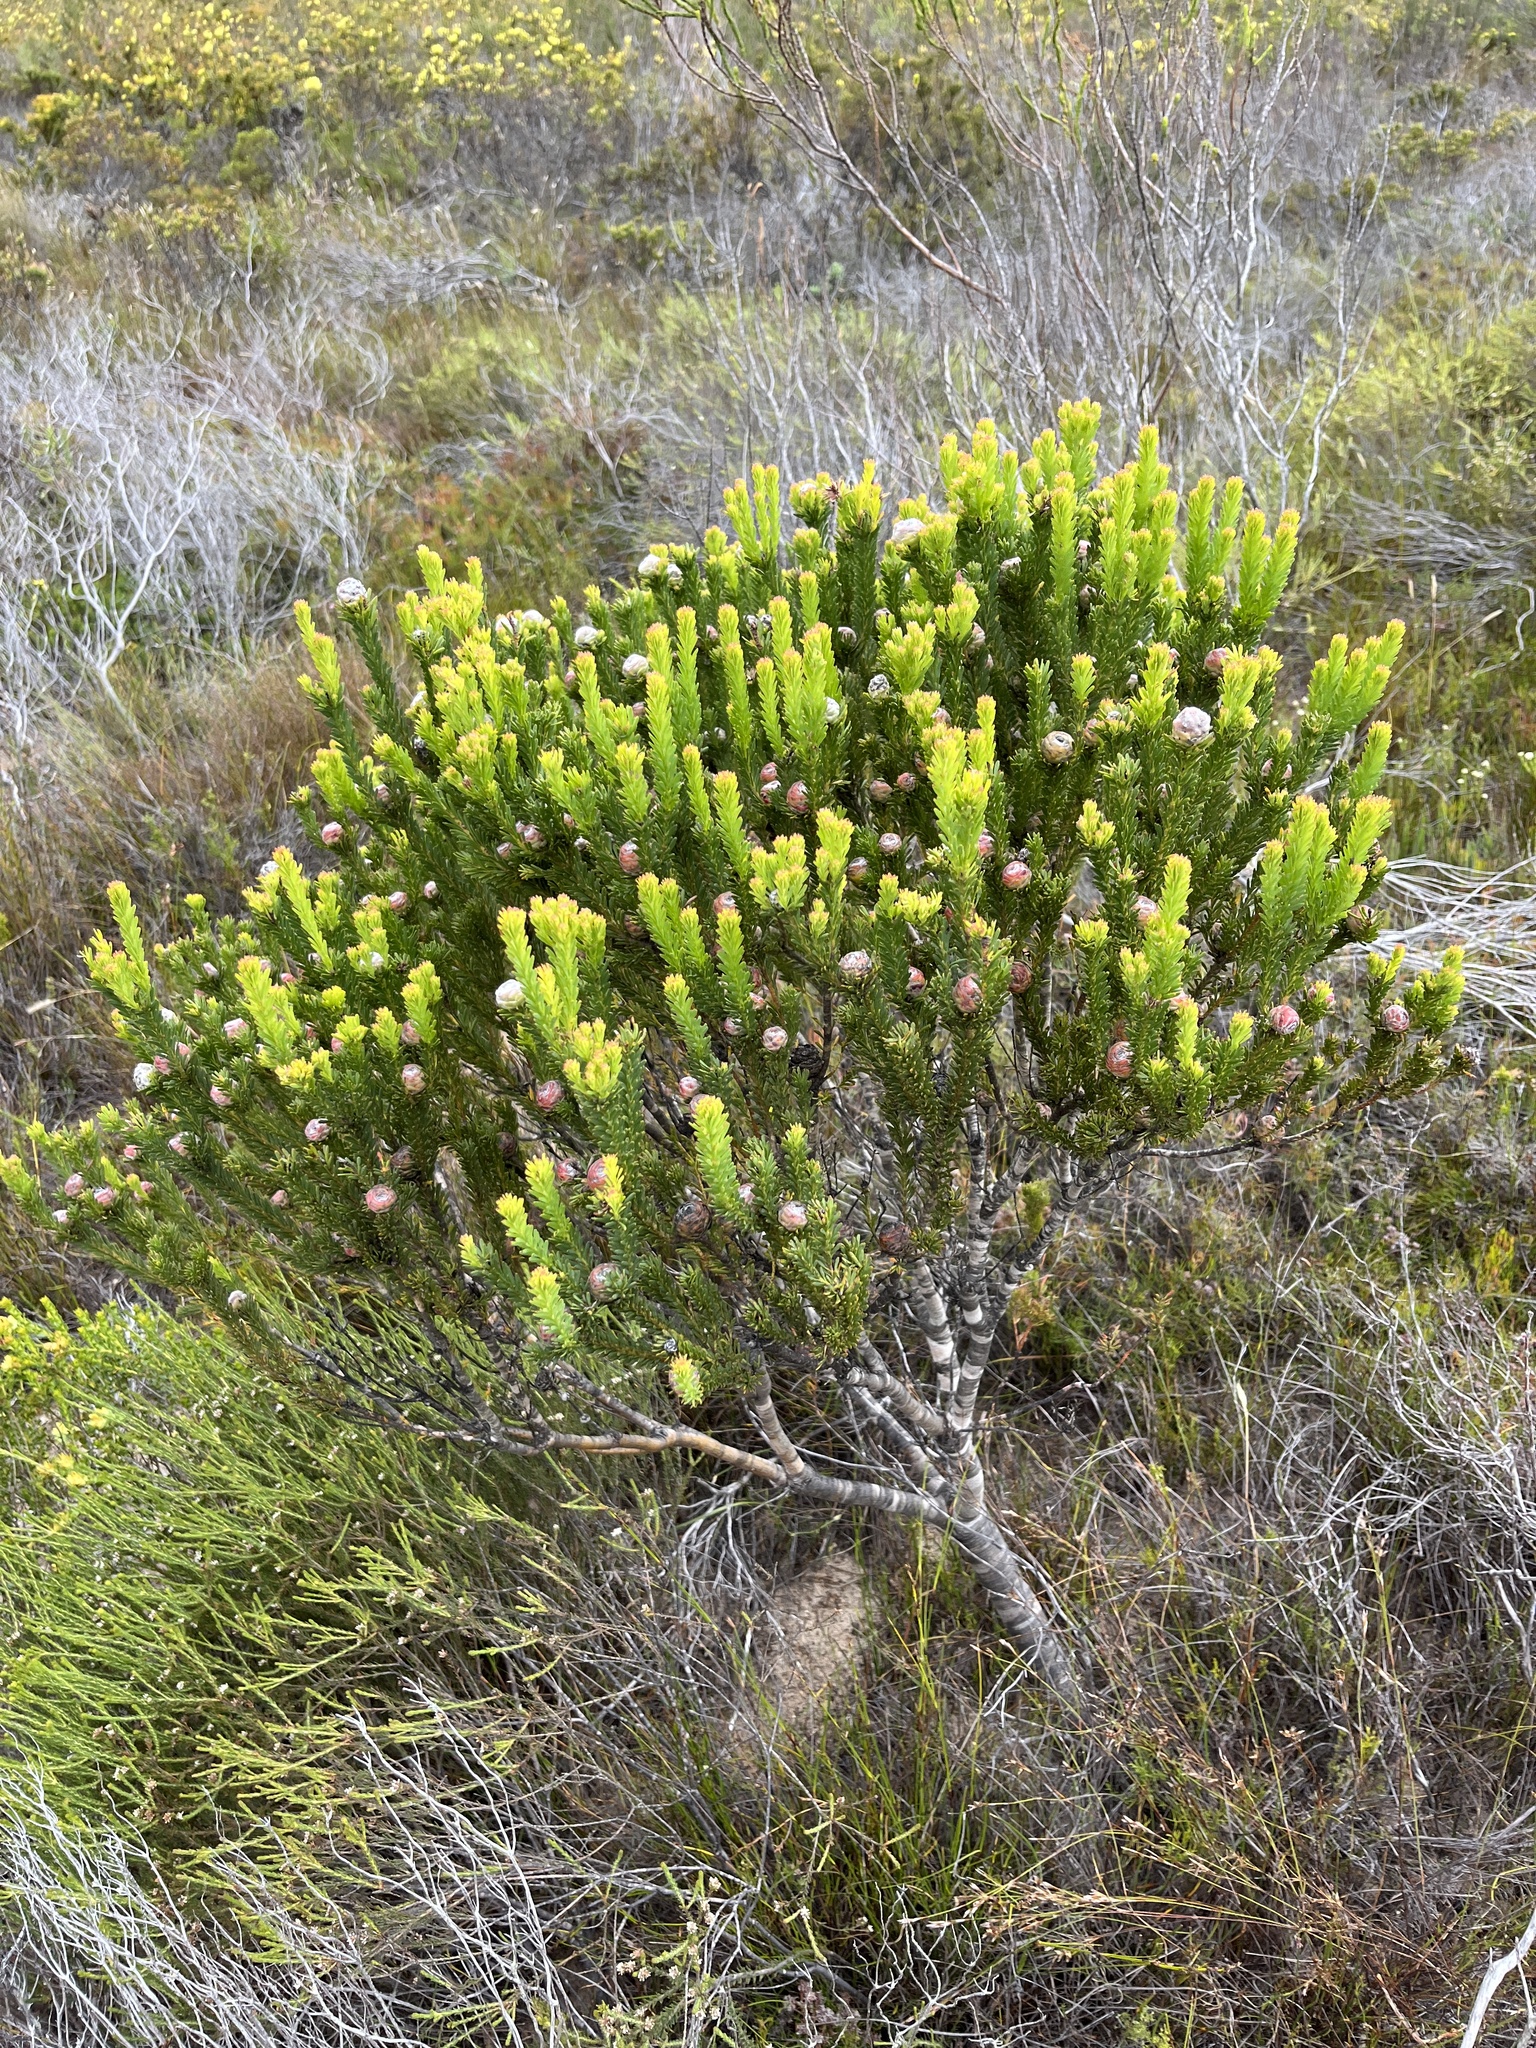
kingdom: Plantae
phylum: Tracheophyta
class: Magnoliopsida
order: Proteales
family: Proteaceae
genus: Leucadendron
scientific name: Leucadendron linifolium
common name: Line-leaf conebush
